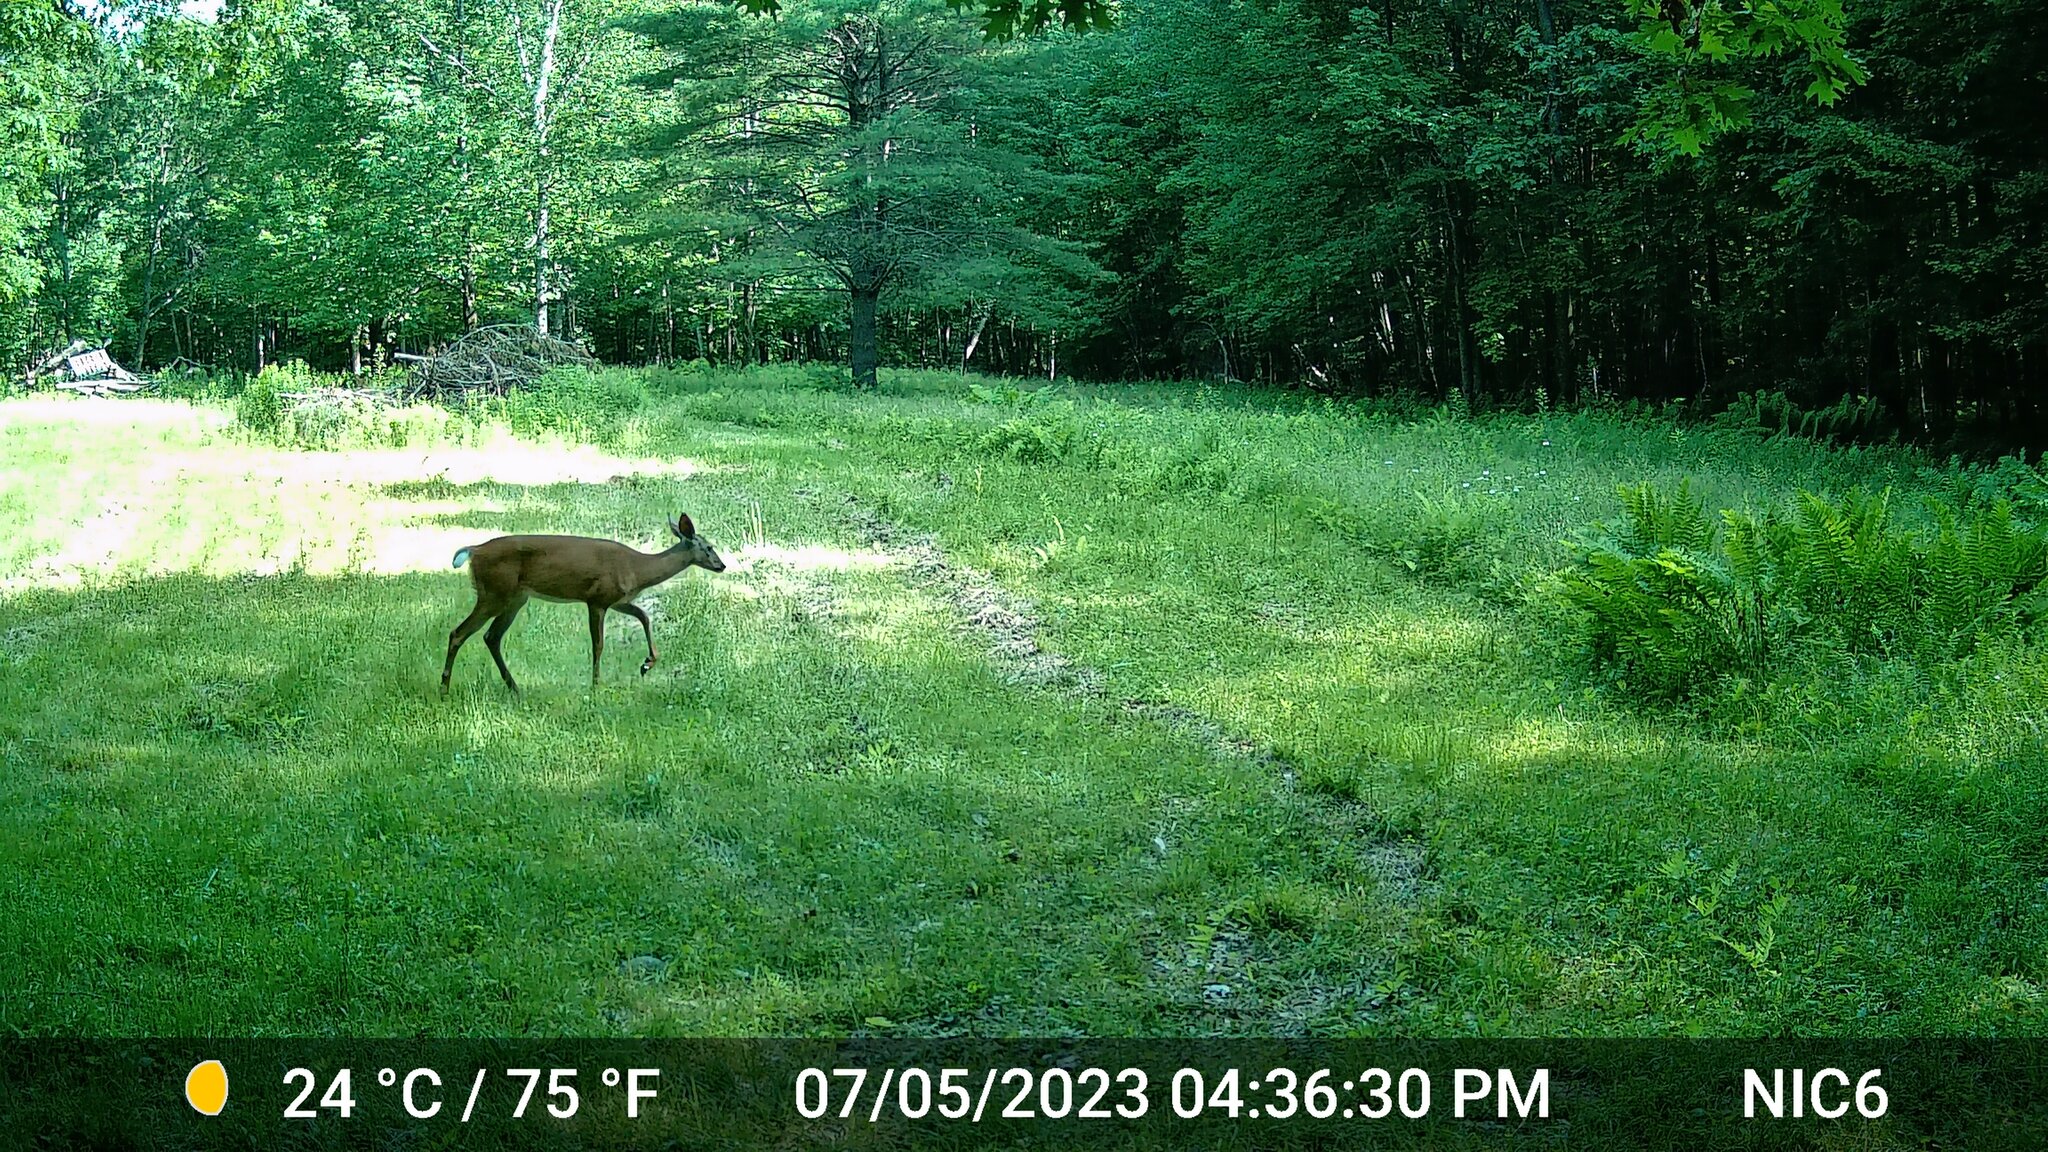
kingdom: Animalia
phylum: Chordata
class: Mammalia
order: Artiodactyla
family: Cervidae
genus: Odocoileus
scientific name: Odocoileus virginianus
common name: White-tailed deer
